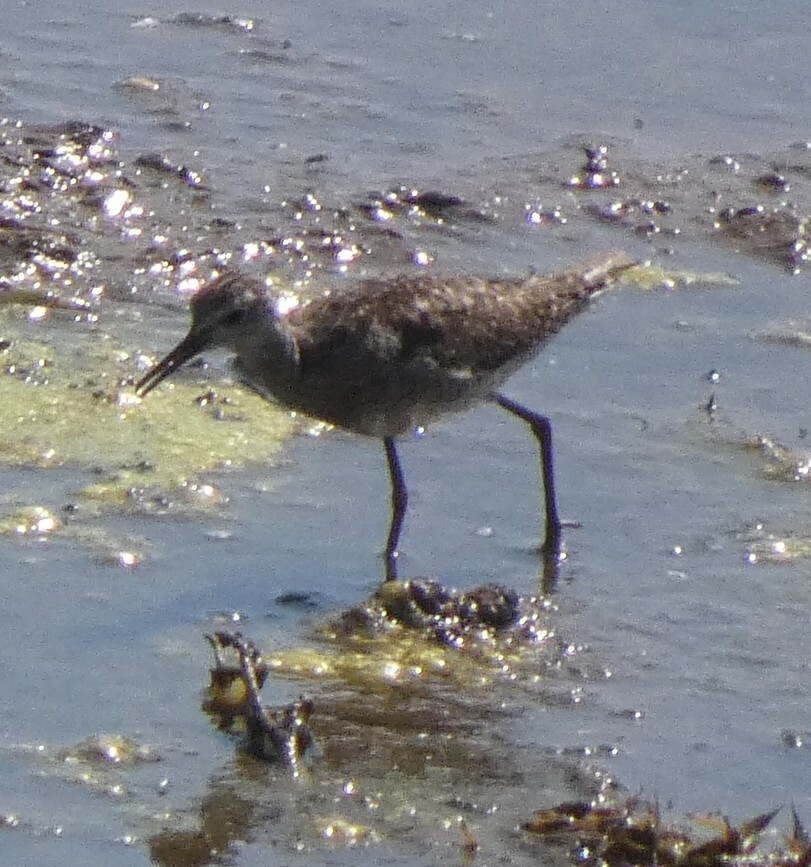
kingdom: Animalia
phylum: Chordata
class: Aves
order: Charadriiformes
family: Scolopacidae
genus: Tringa
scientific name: Tringa glareola
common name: Wood sandpiper
